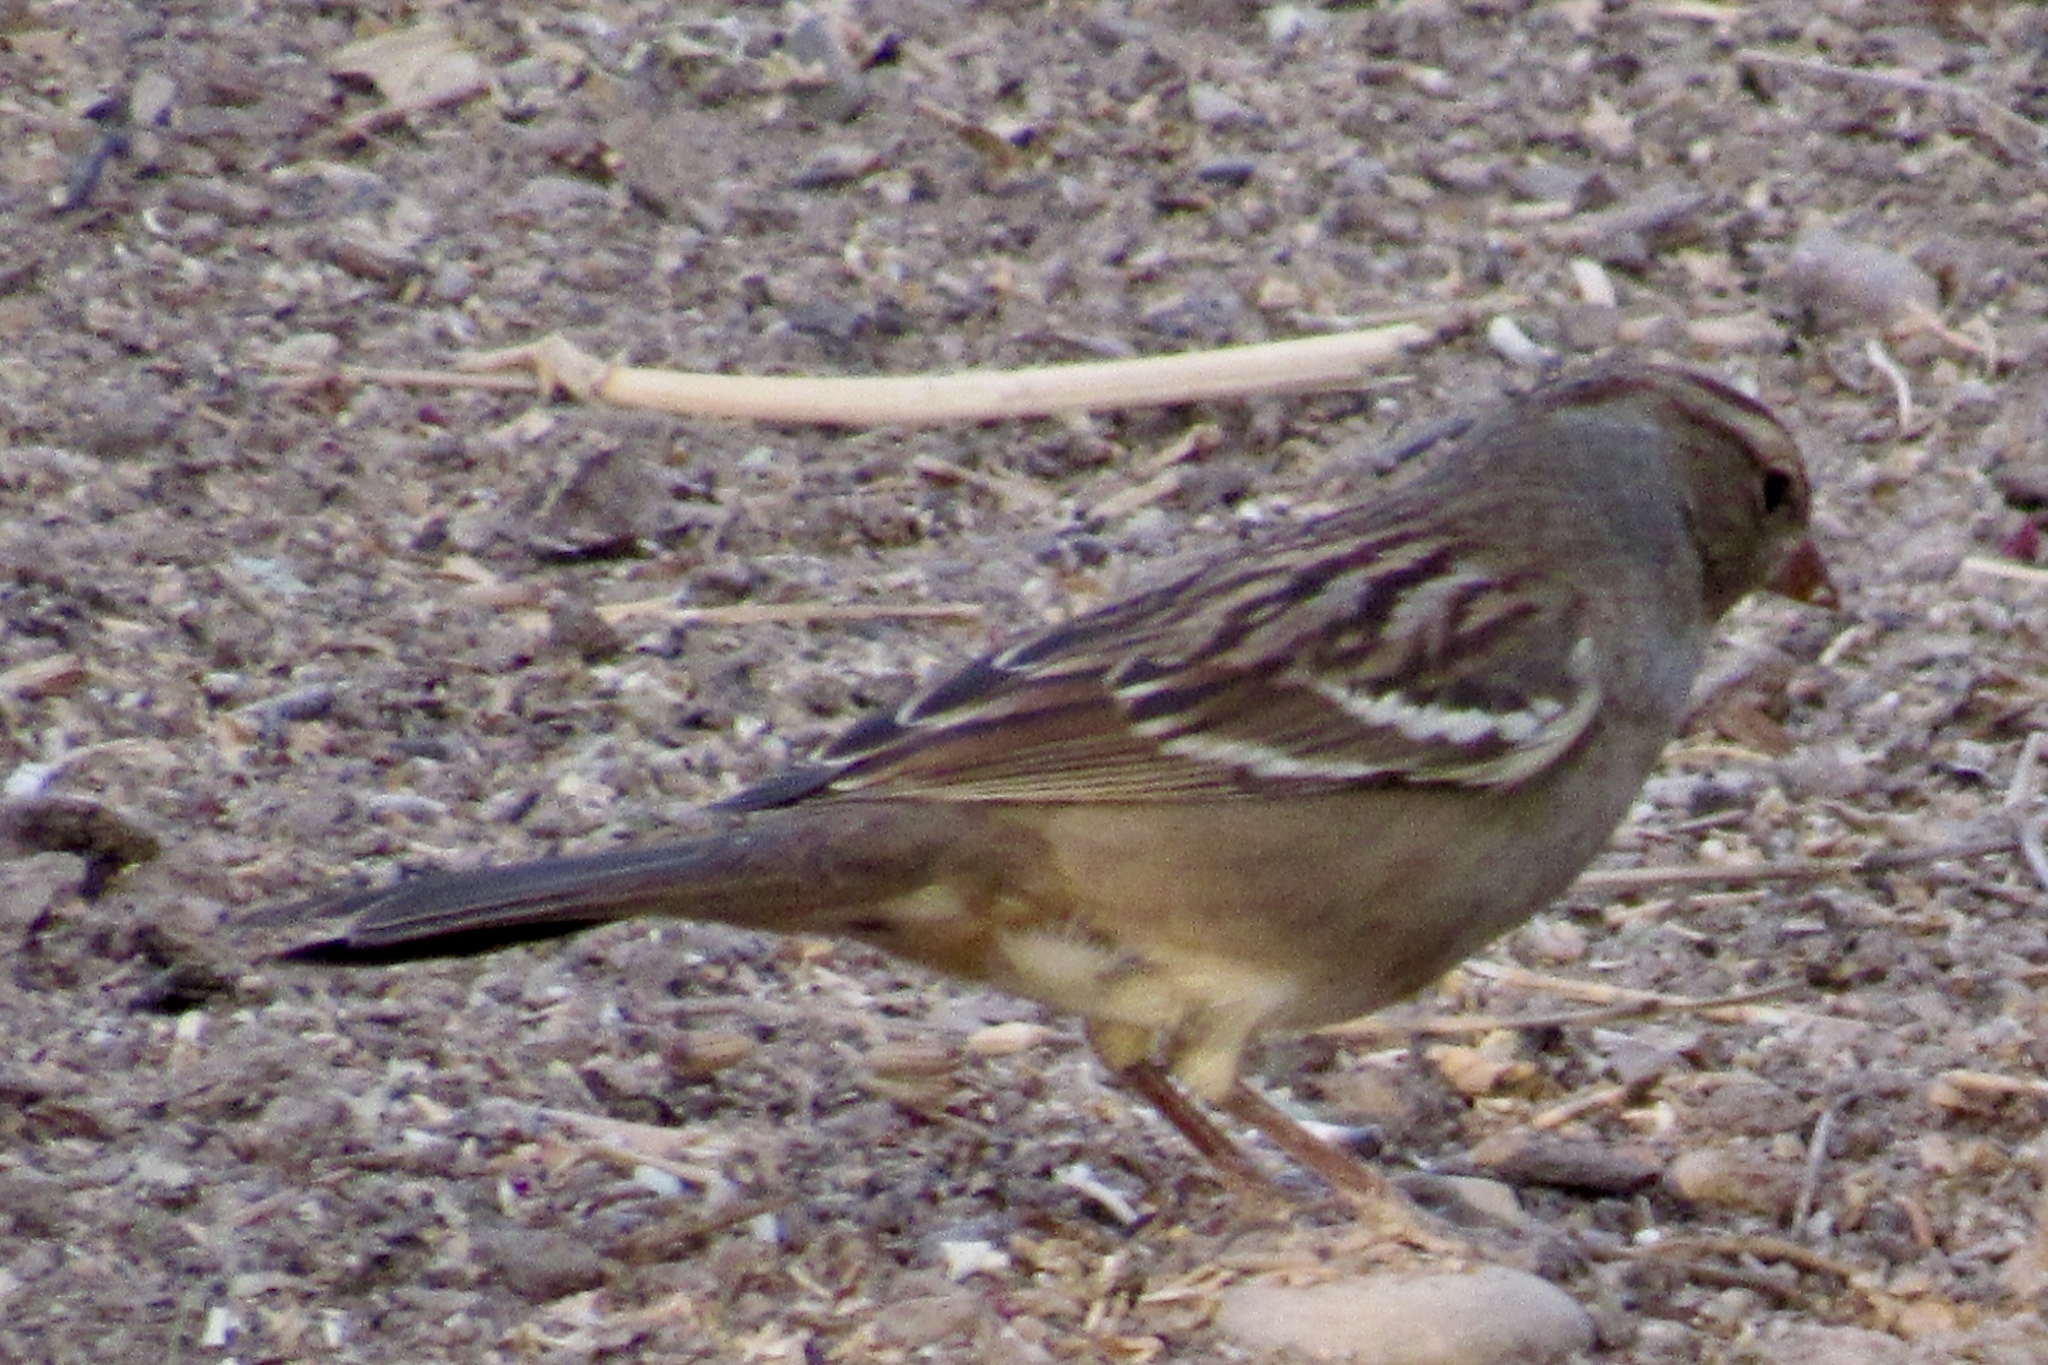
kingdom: Animalia
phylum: Chordata
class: Aves
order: Passeriformes
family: Passerellidae
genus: Zonotrichia
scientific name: Zonotrichia leucophrys
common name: White-crowned sparrow
